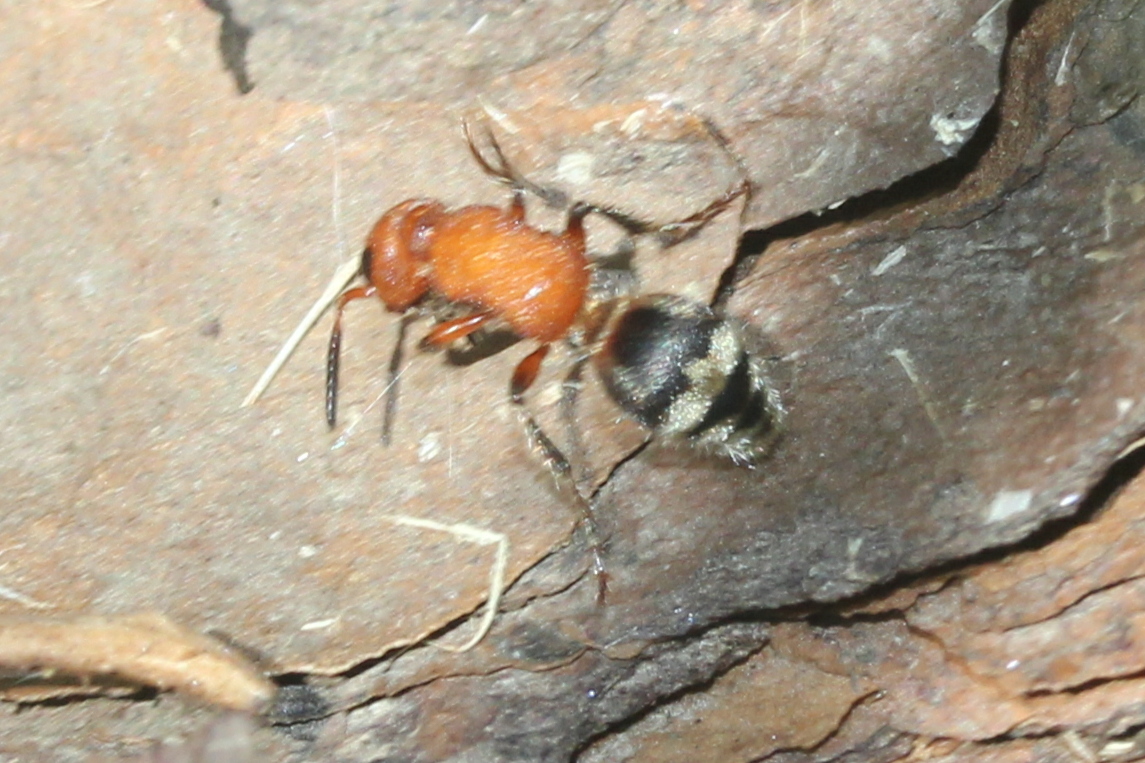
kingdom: Animalia
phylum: Arthropoda
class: Insecta
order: Hymenoptera
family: Mutillidae
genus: Timulla
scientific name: Timulla
